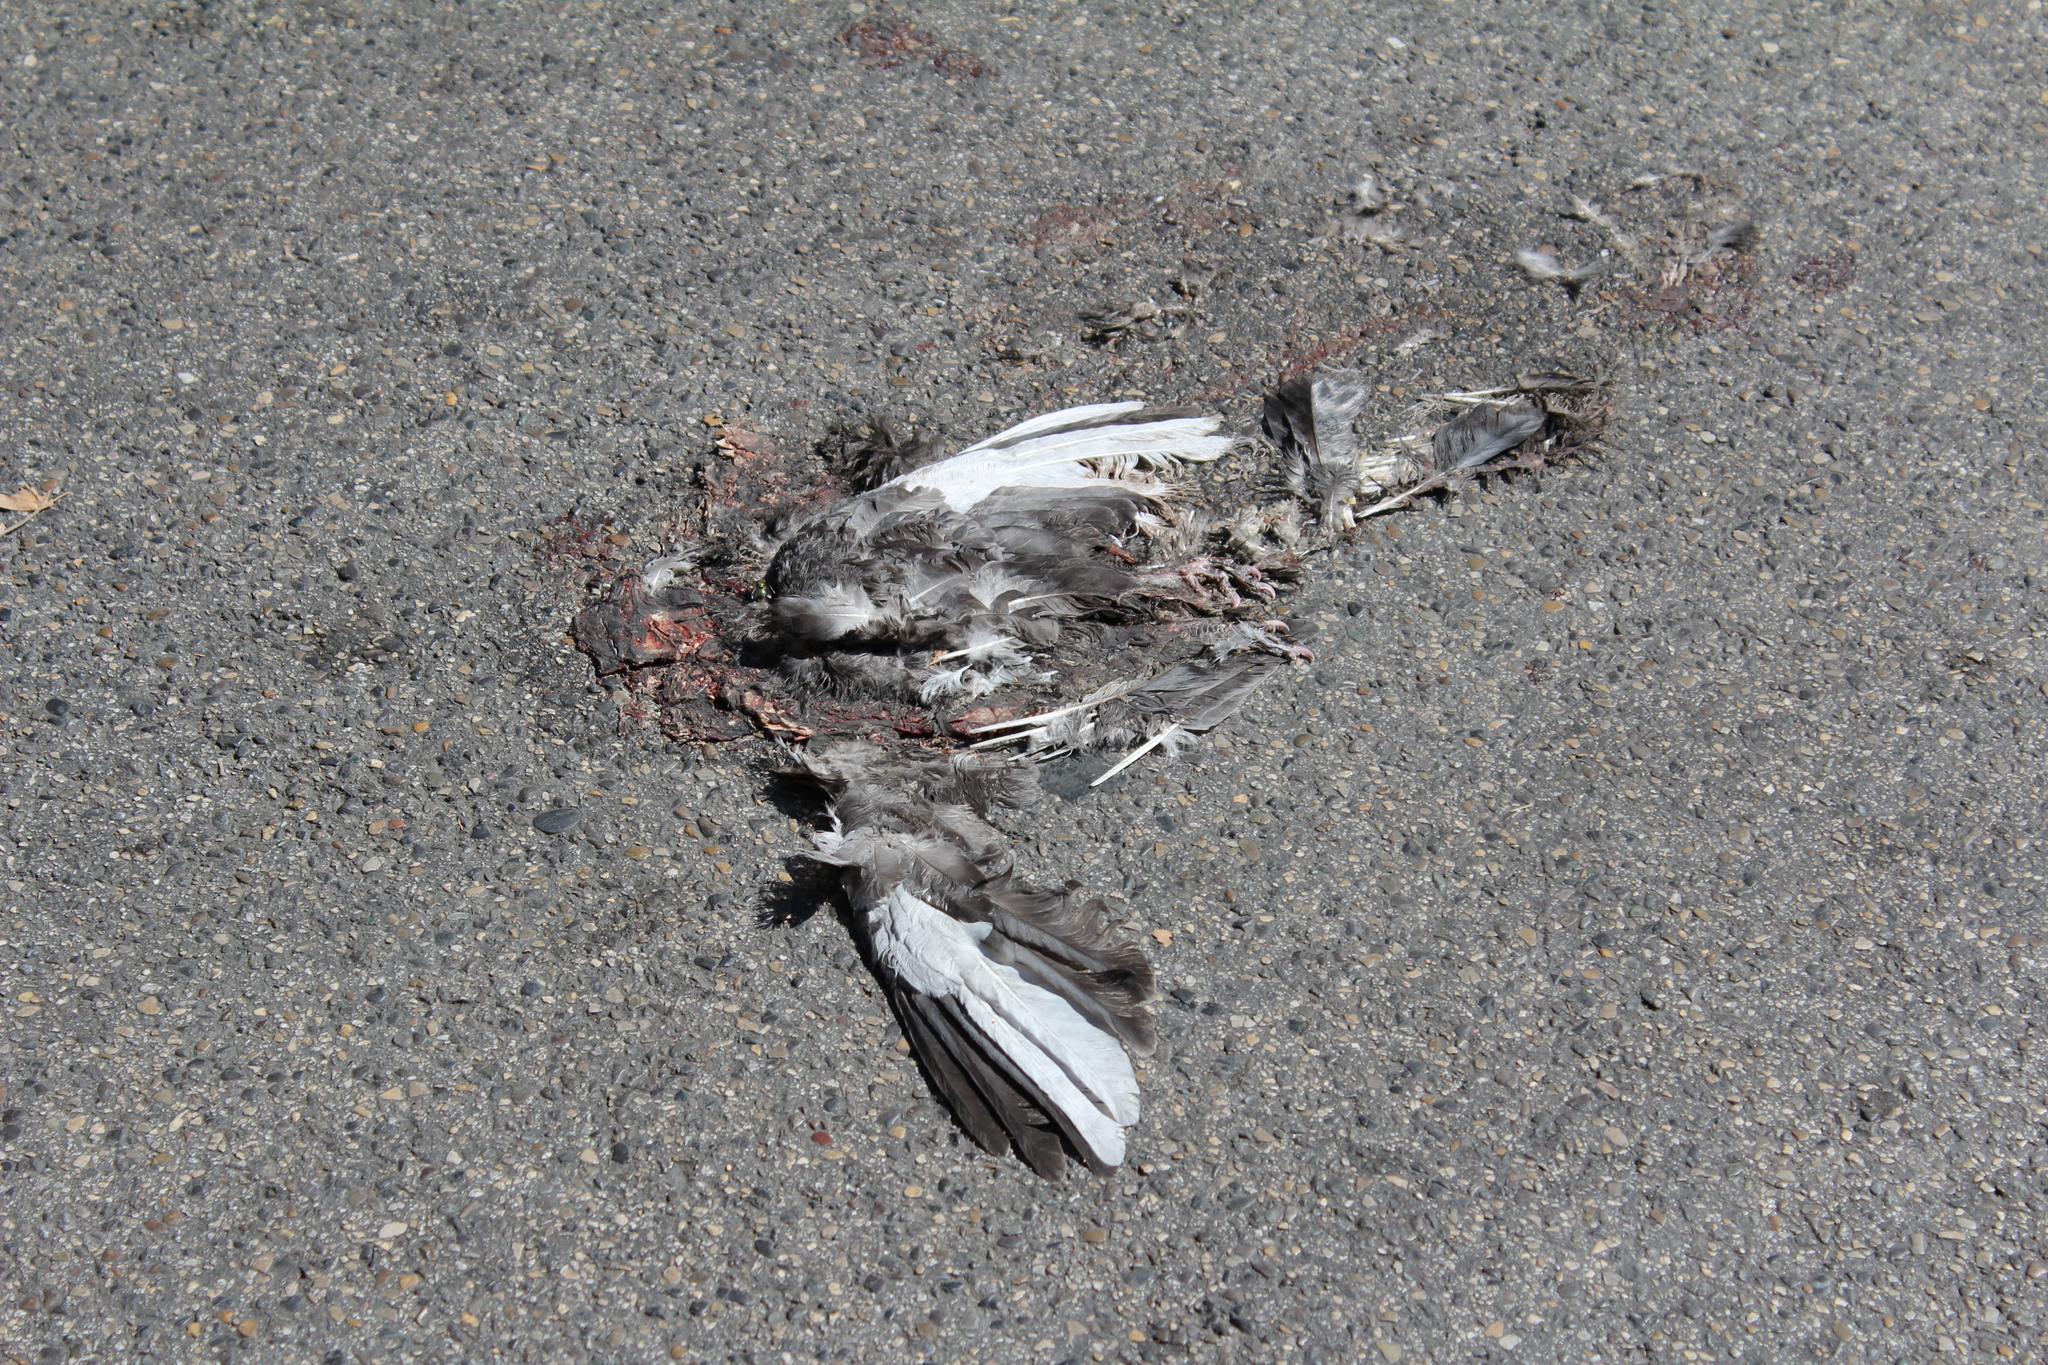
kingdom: Animalia
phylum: Chordata
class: Aves
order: Columbiformes
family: Columbidae
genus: Columba
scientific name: Columba livia
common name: Rock pigeon
